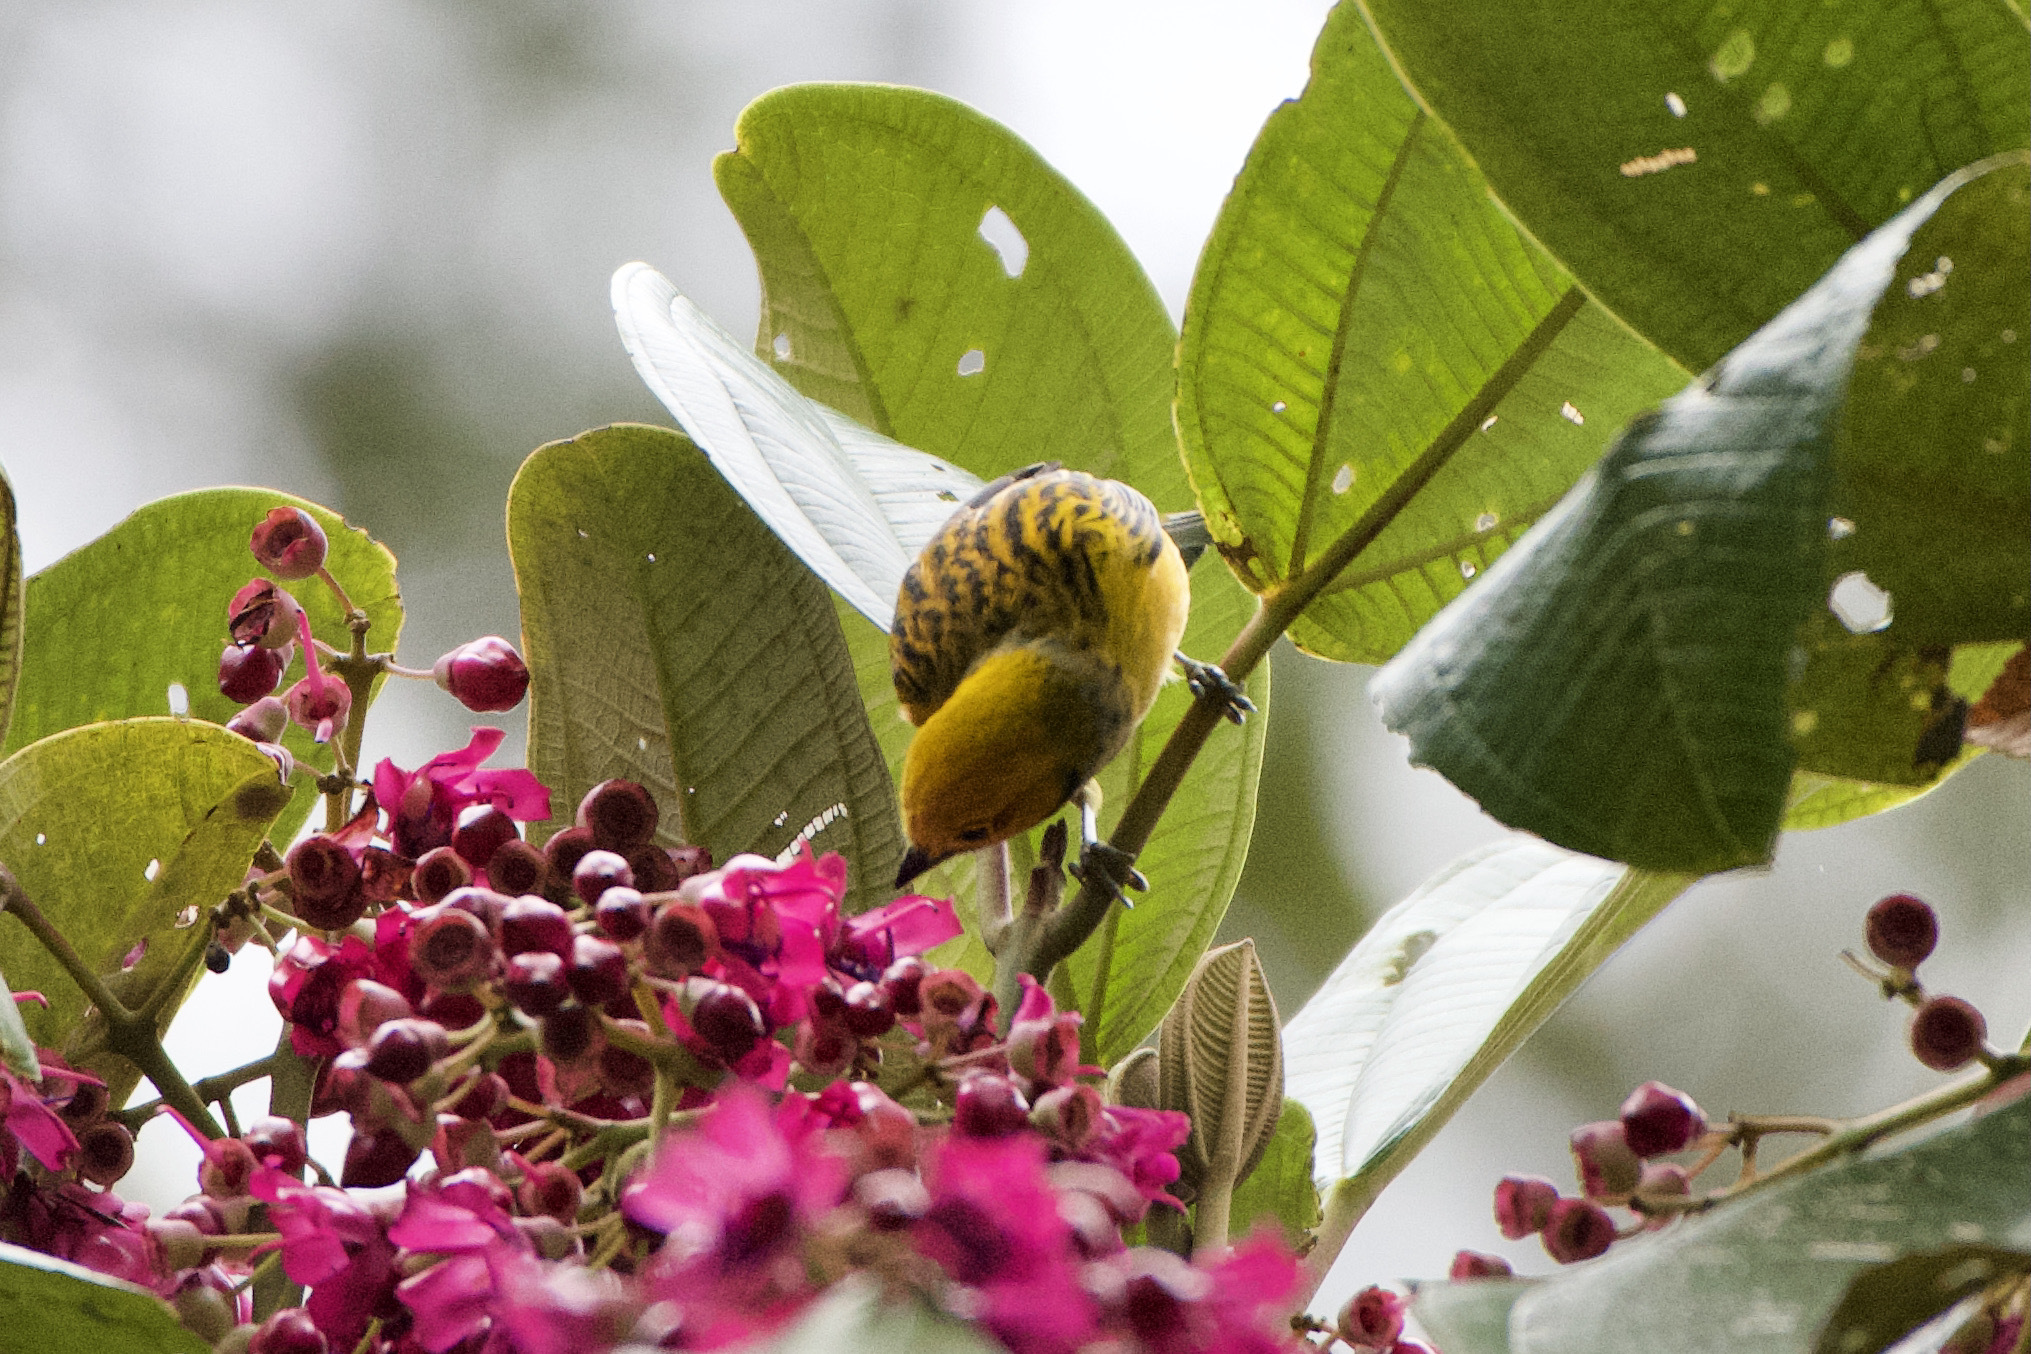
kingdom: Animalia
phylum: Chordata
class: Aves
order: Passeriformes
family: Thraupidae
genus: Tangara
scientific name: Tangara icterocephala
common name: Silver-throated tanager
